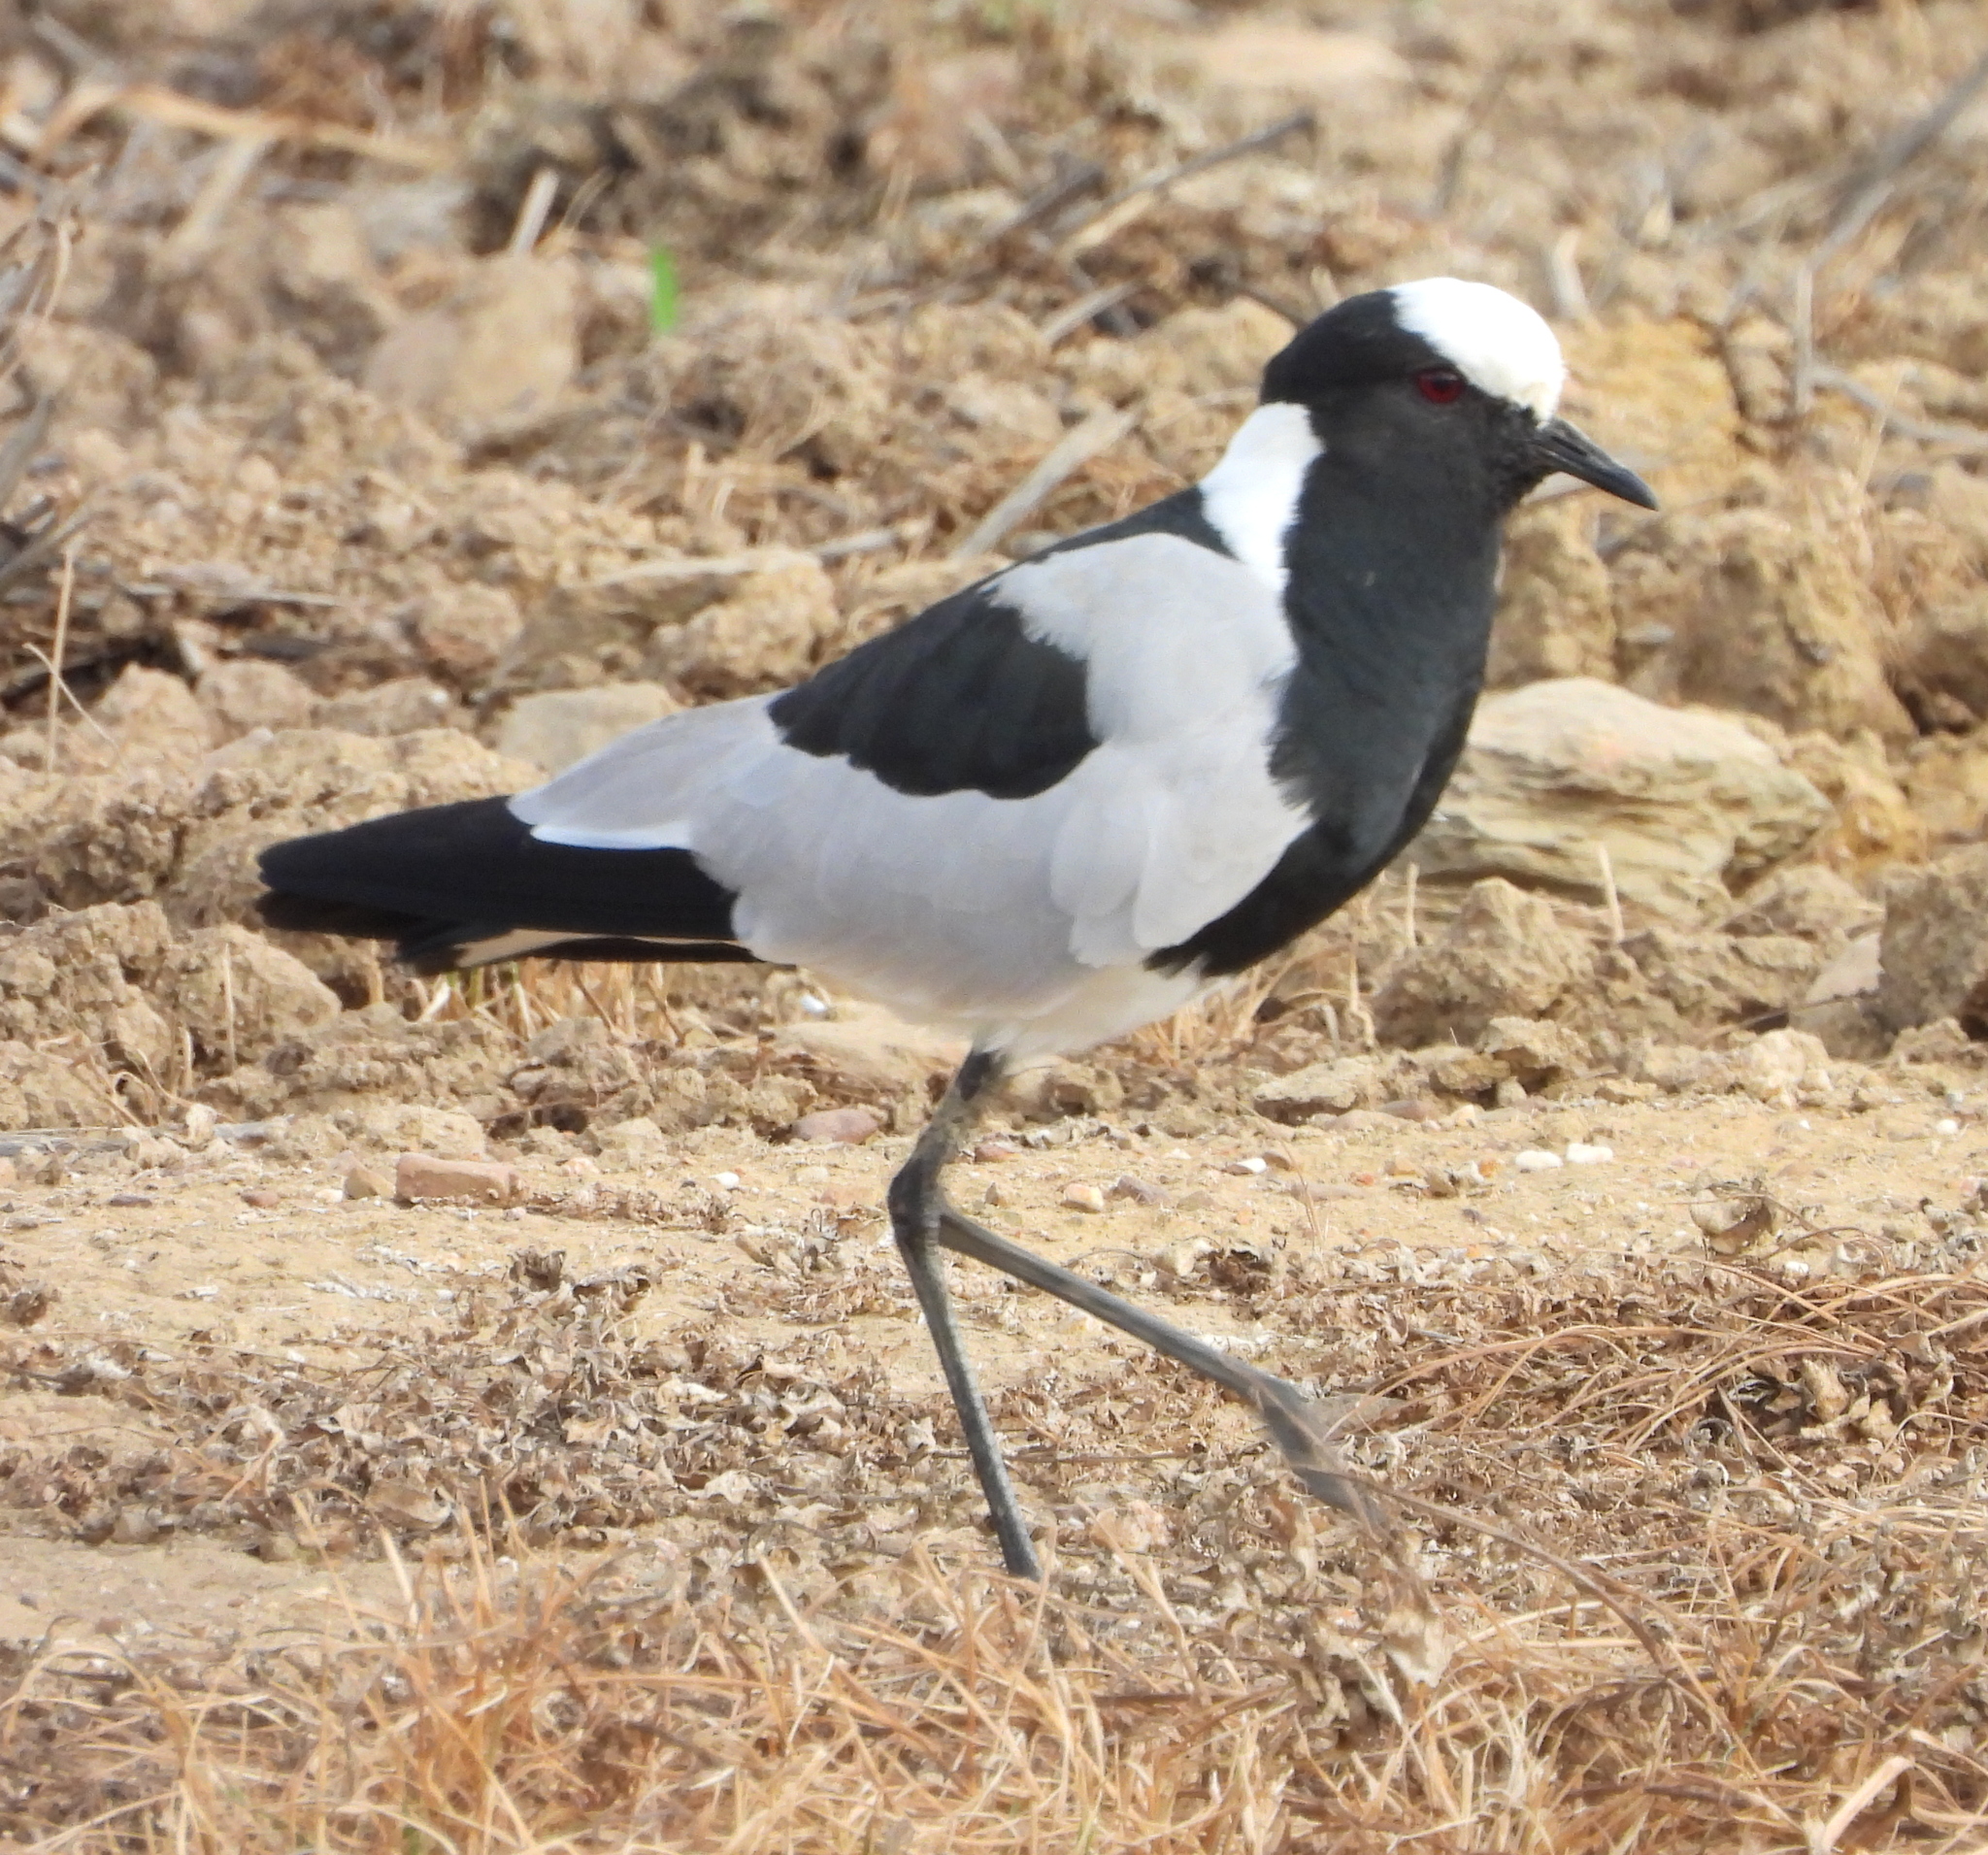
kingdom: Animalia
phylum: Chordata
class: Aves
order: Charadriiformes
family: Charadriidae
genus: Vanellus
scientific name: Vanellus armatus
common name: Blacksmith lapwing
